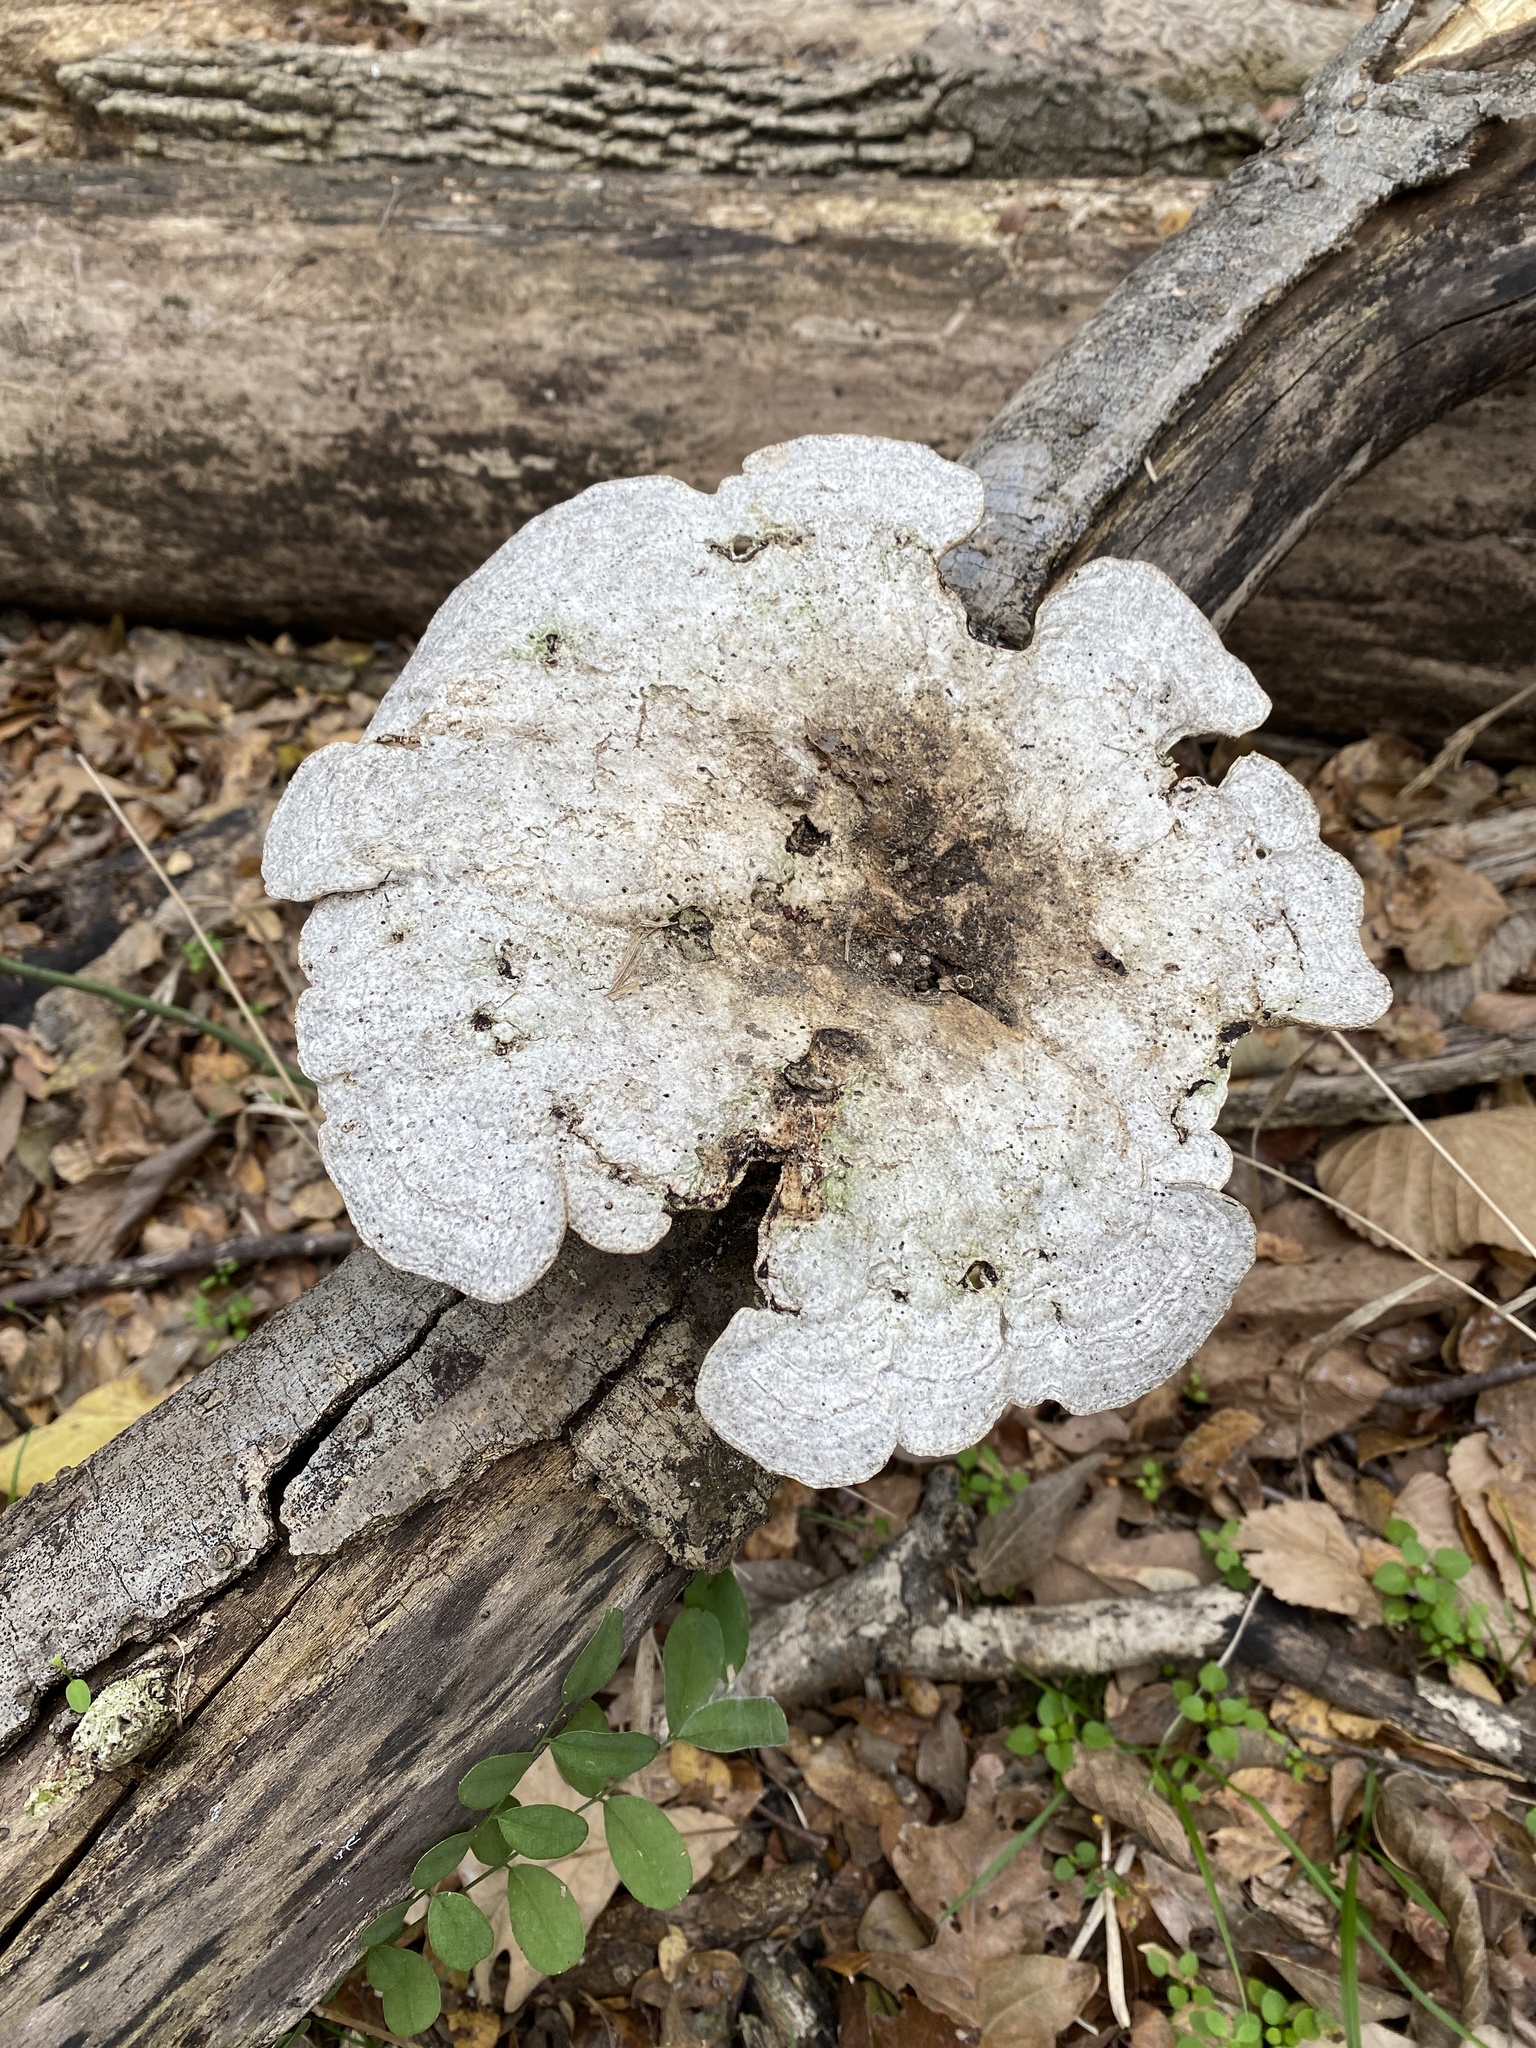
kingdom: Fungi
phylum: Basidiomycota
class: Agaricomycetes
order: Polyporales
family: Polyporaceae
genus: Trametes
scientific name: Trametes
